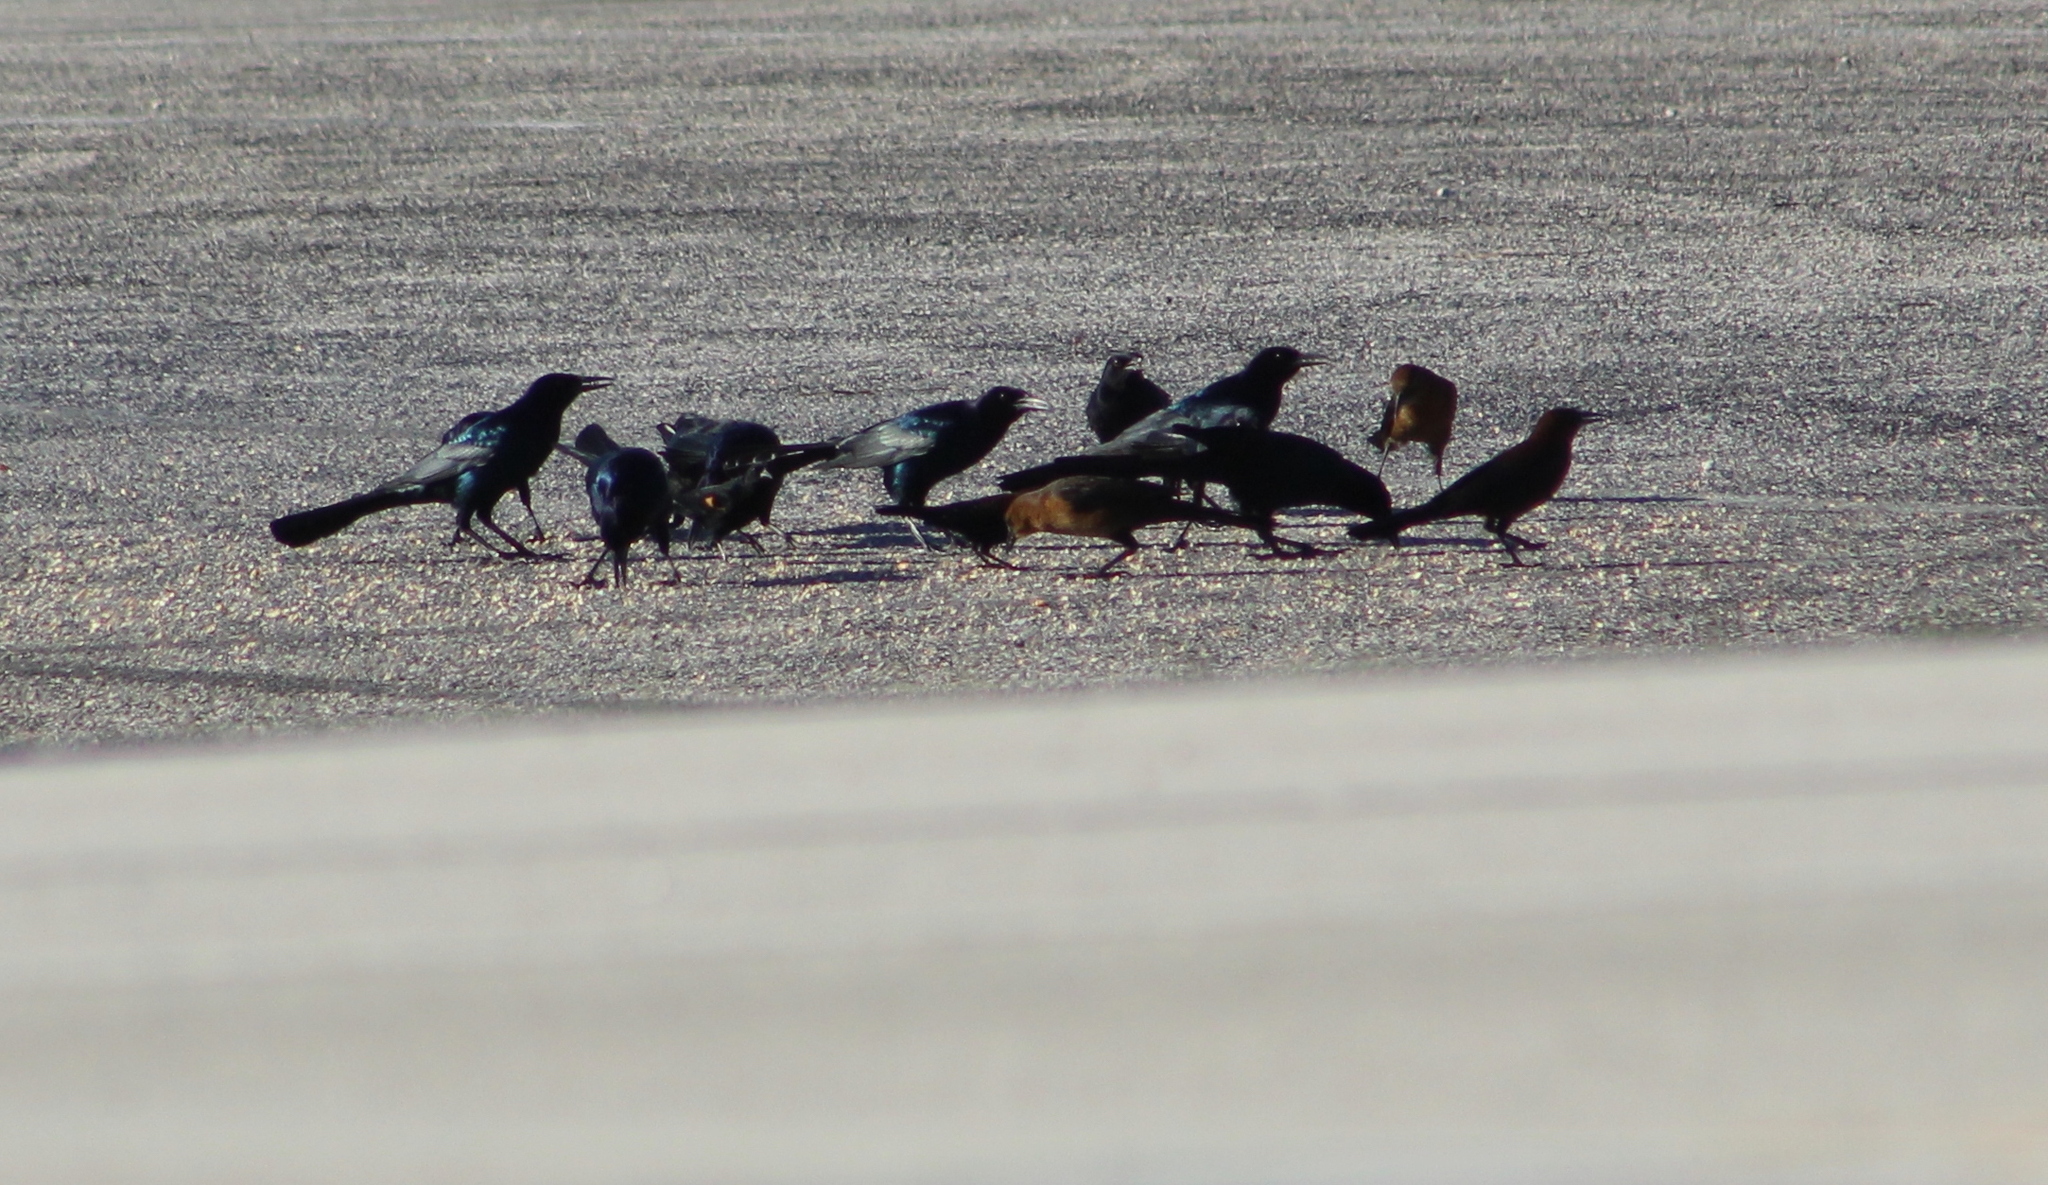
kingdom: Animalia
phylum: Chordata
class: Aves
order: Passeriformes
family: Icteridae
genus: Quiscalus
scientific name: Quiscalus major
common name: Boat-tailed grackle
